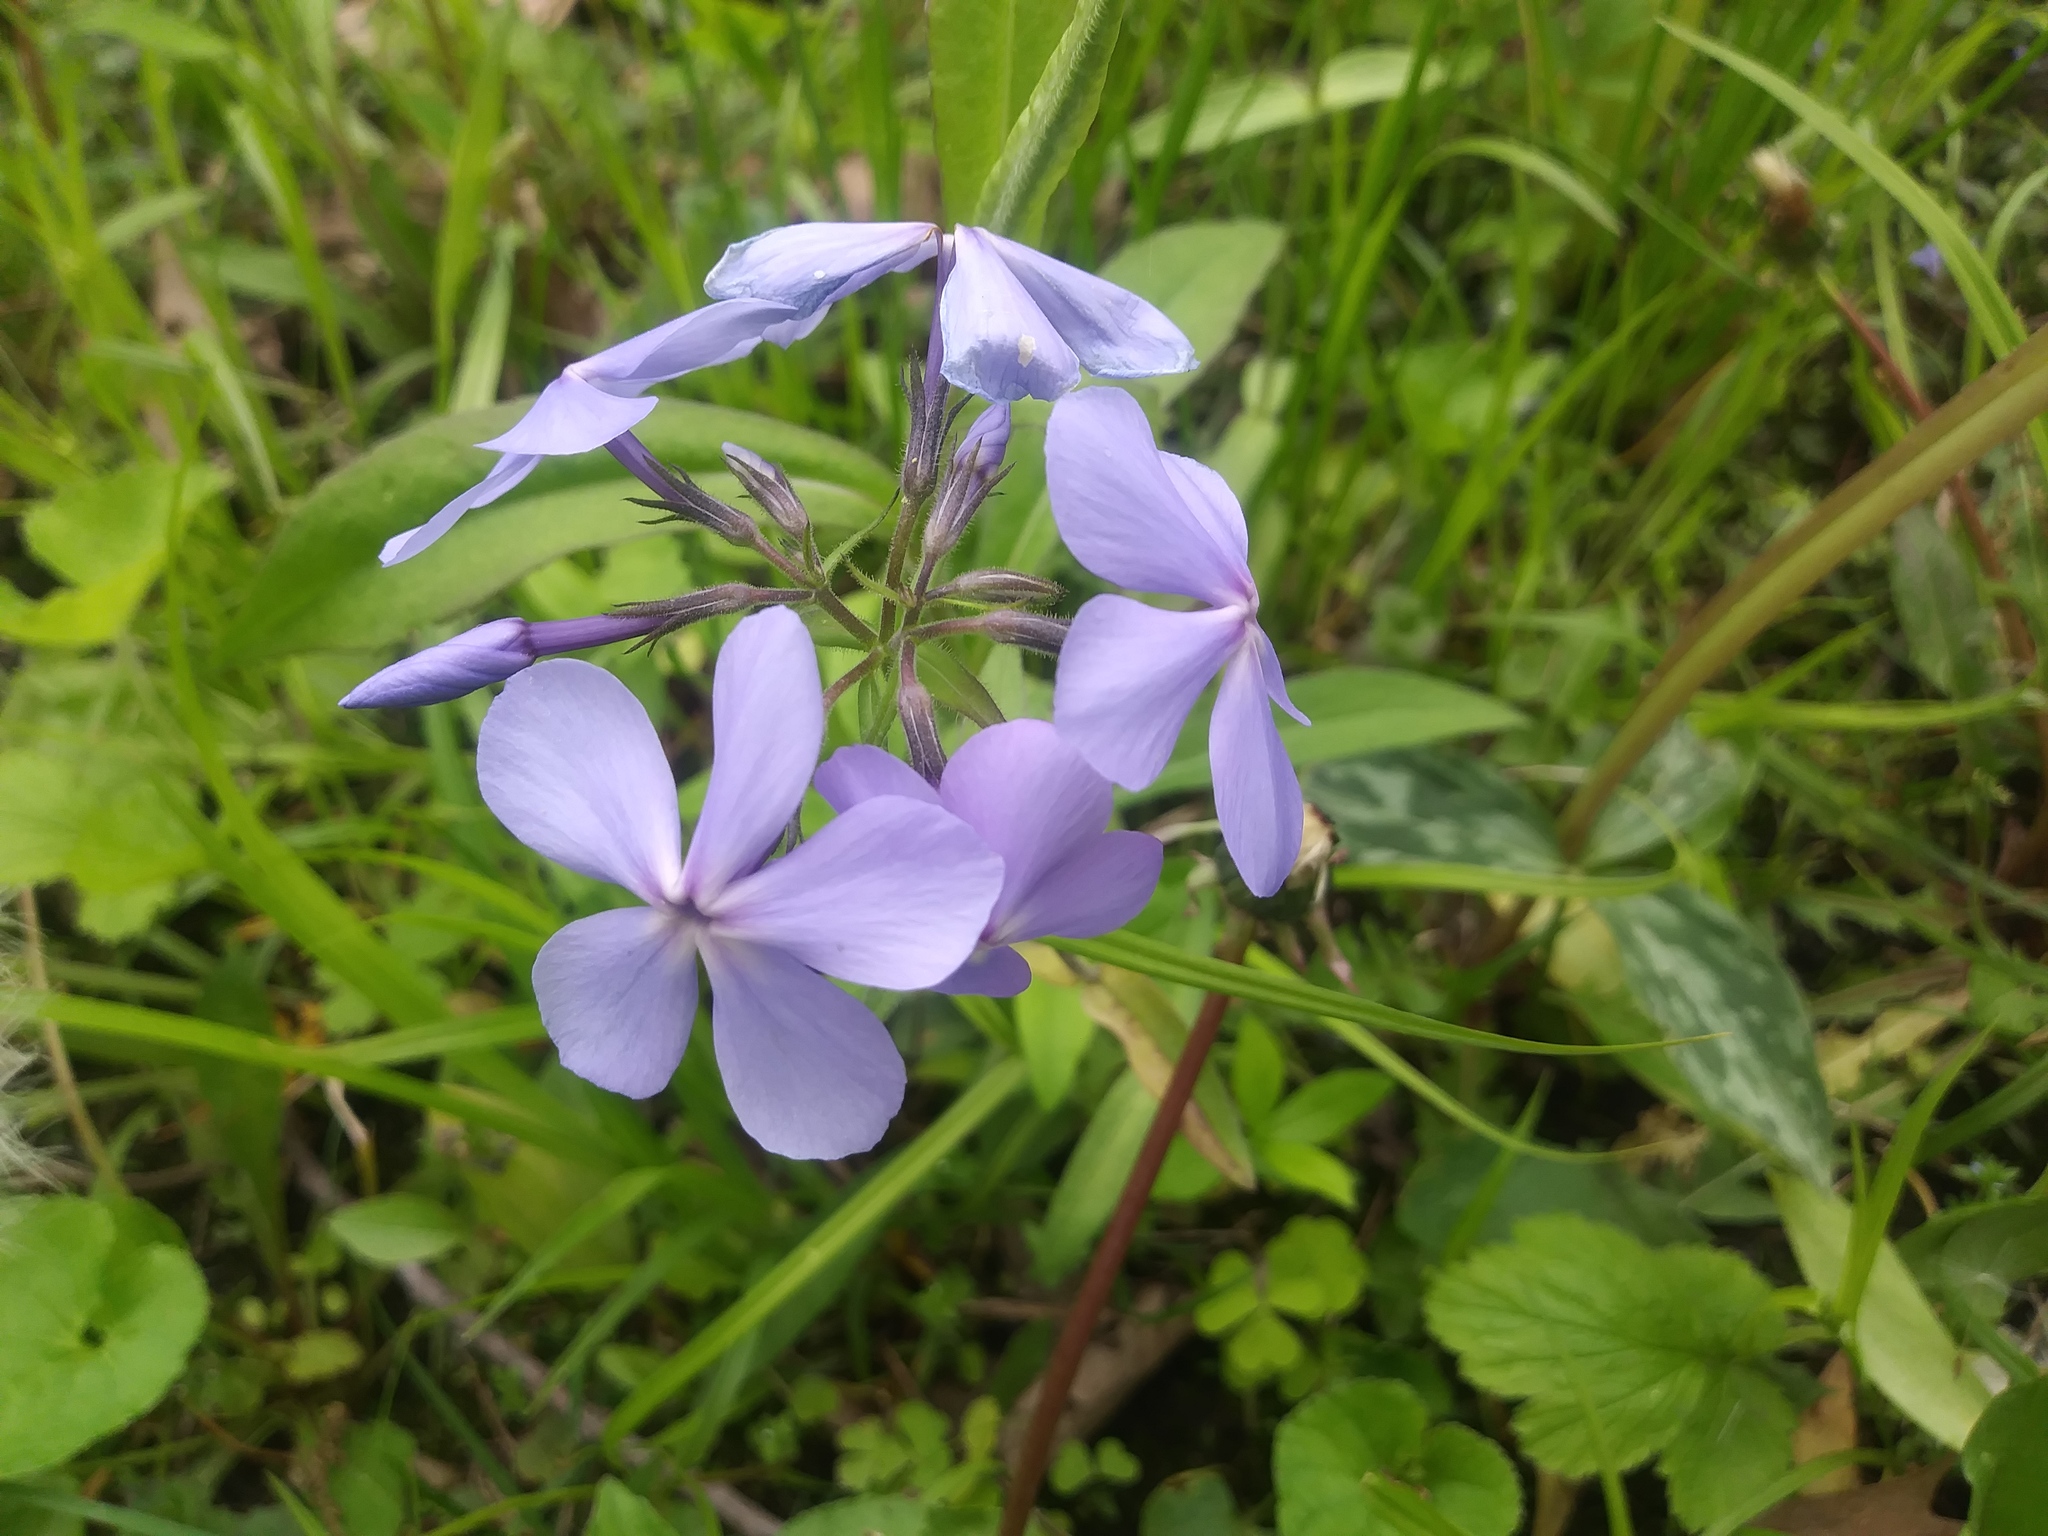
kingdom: Plantae
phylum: Tracheophyta
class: Magnoliopsida
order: Ericales
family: Polemoniaceae
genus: Phlox
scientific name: Phlox divaricata
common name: Blue phlox
